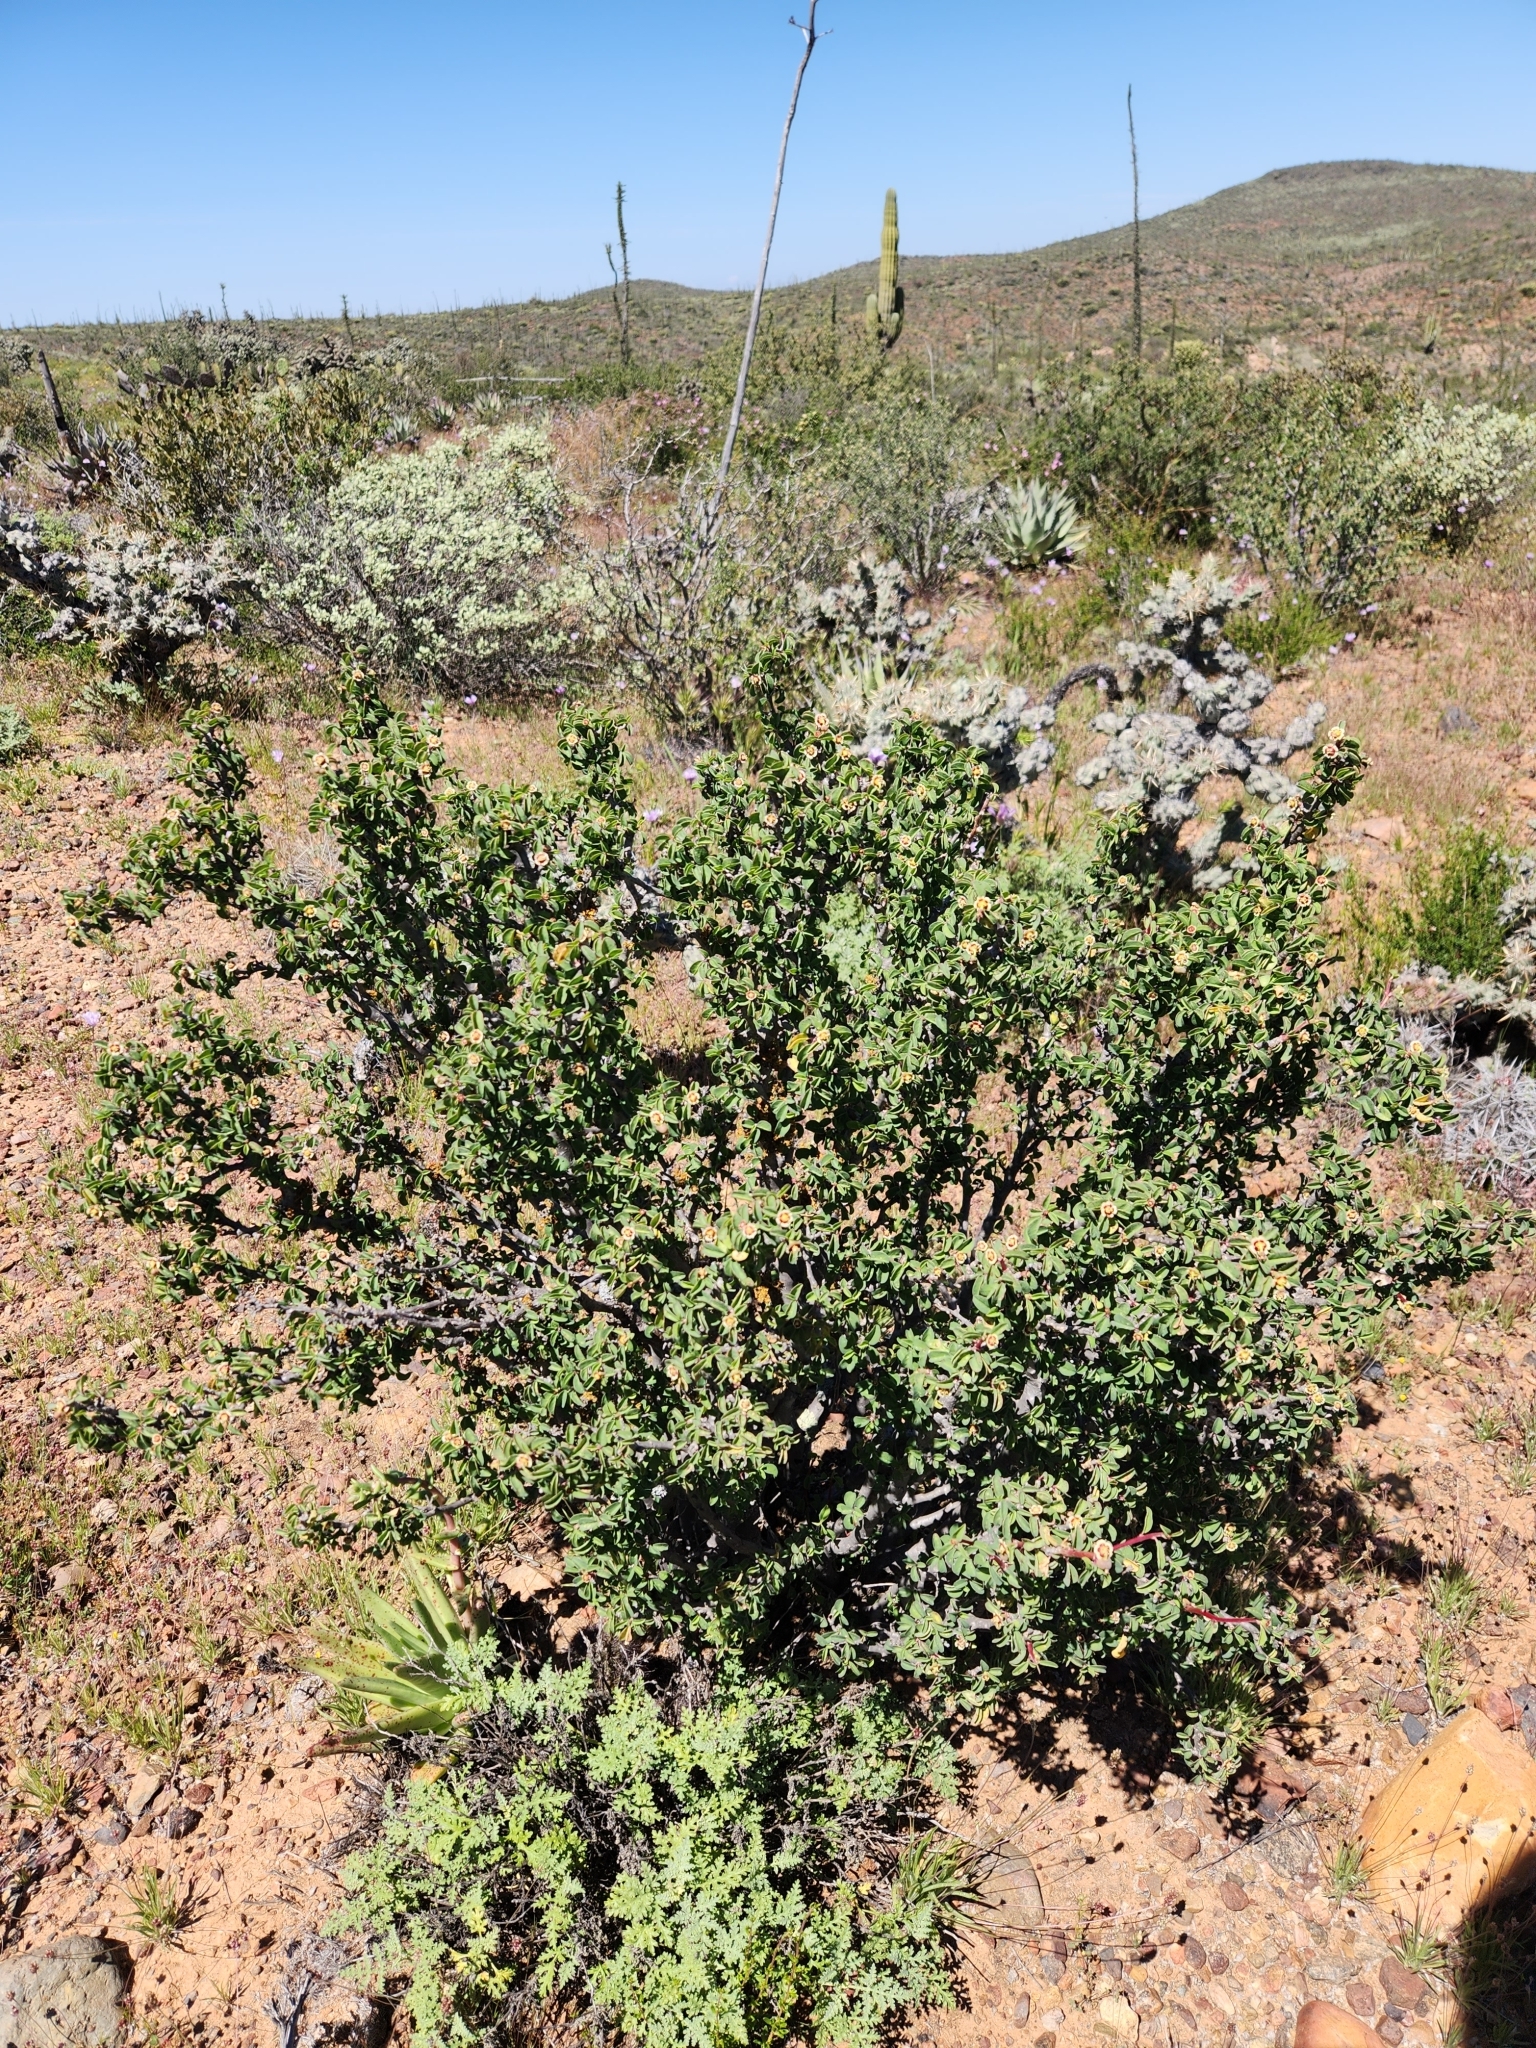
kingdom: Plantae
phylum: Tracheophyta
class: Magnoliopsida
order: Malpighiales
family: Euphorbiaceae
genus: Euphorbia
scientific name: Euphorbia misera
